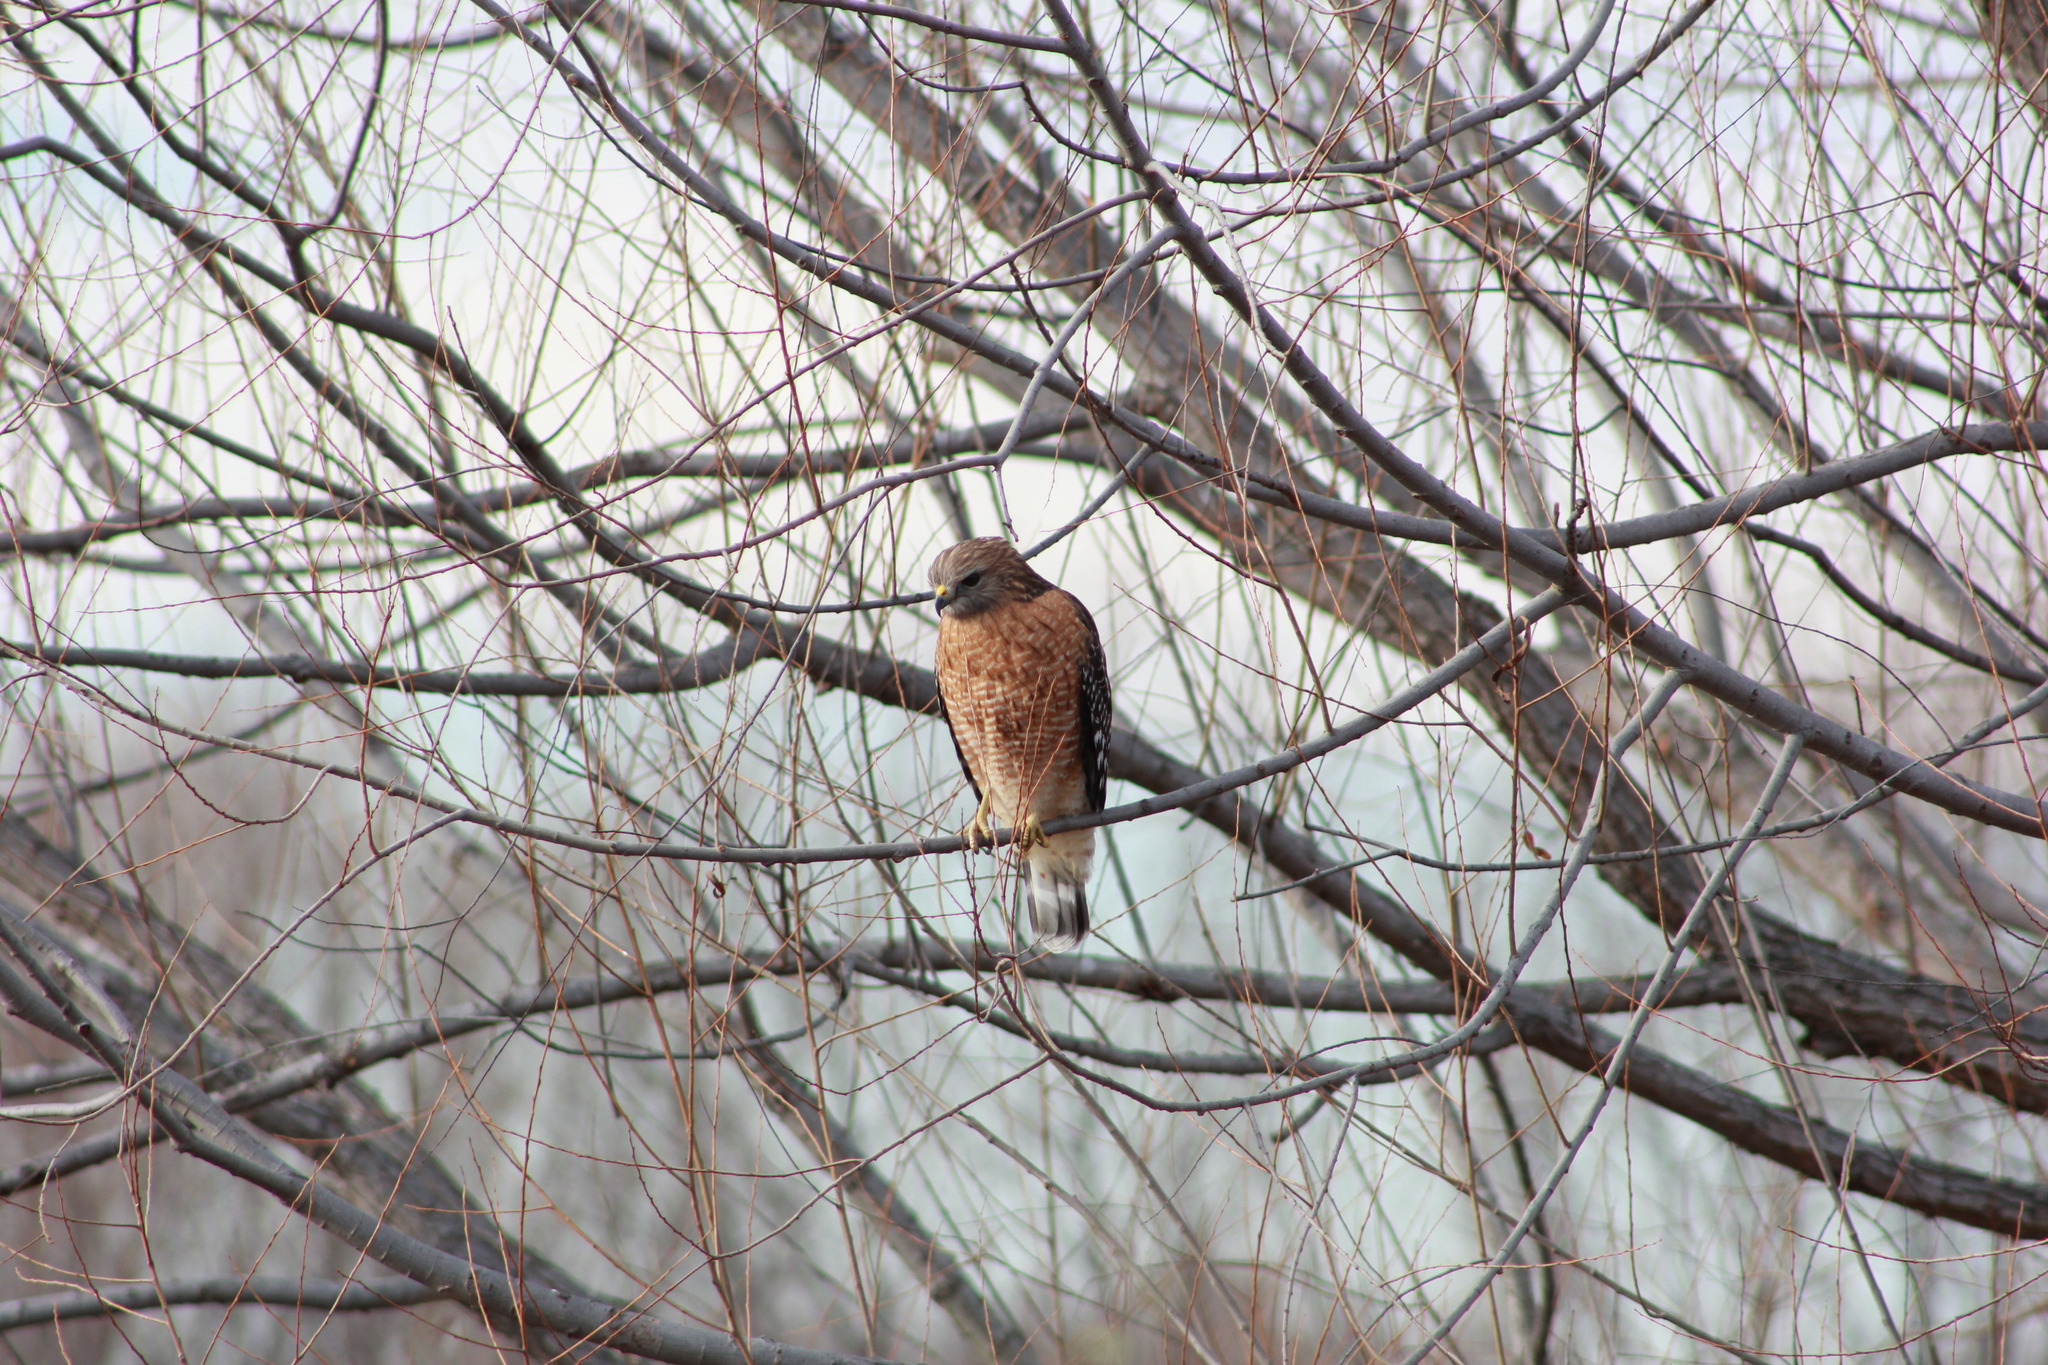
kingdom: Animalia
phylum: Chordata
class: Aves
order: Accipitriformes
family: Accipitridae
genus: Buteo
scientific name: Buteo lineatus
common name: Red-shouldered hawk
